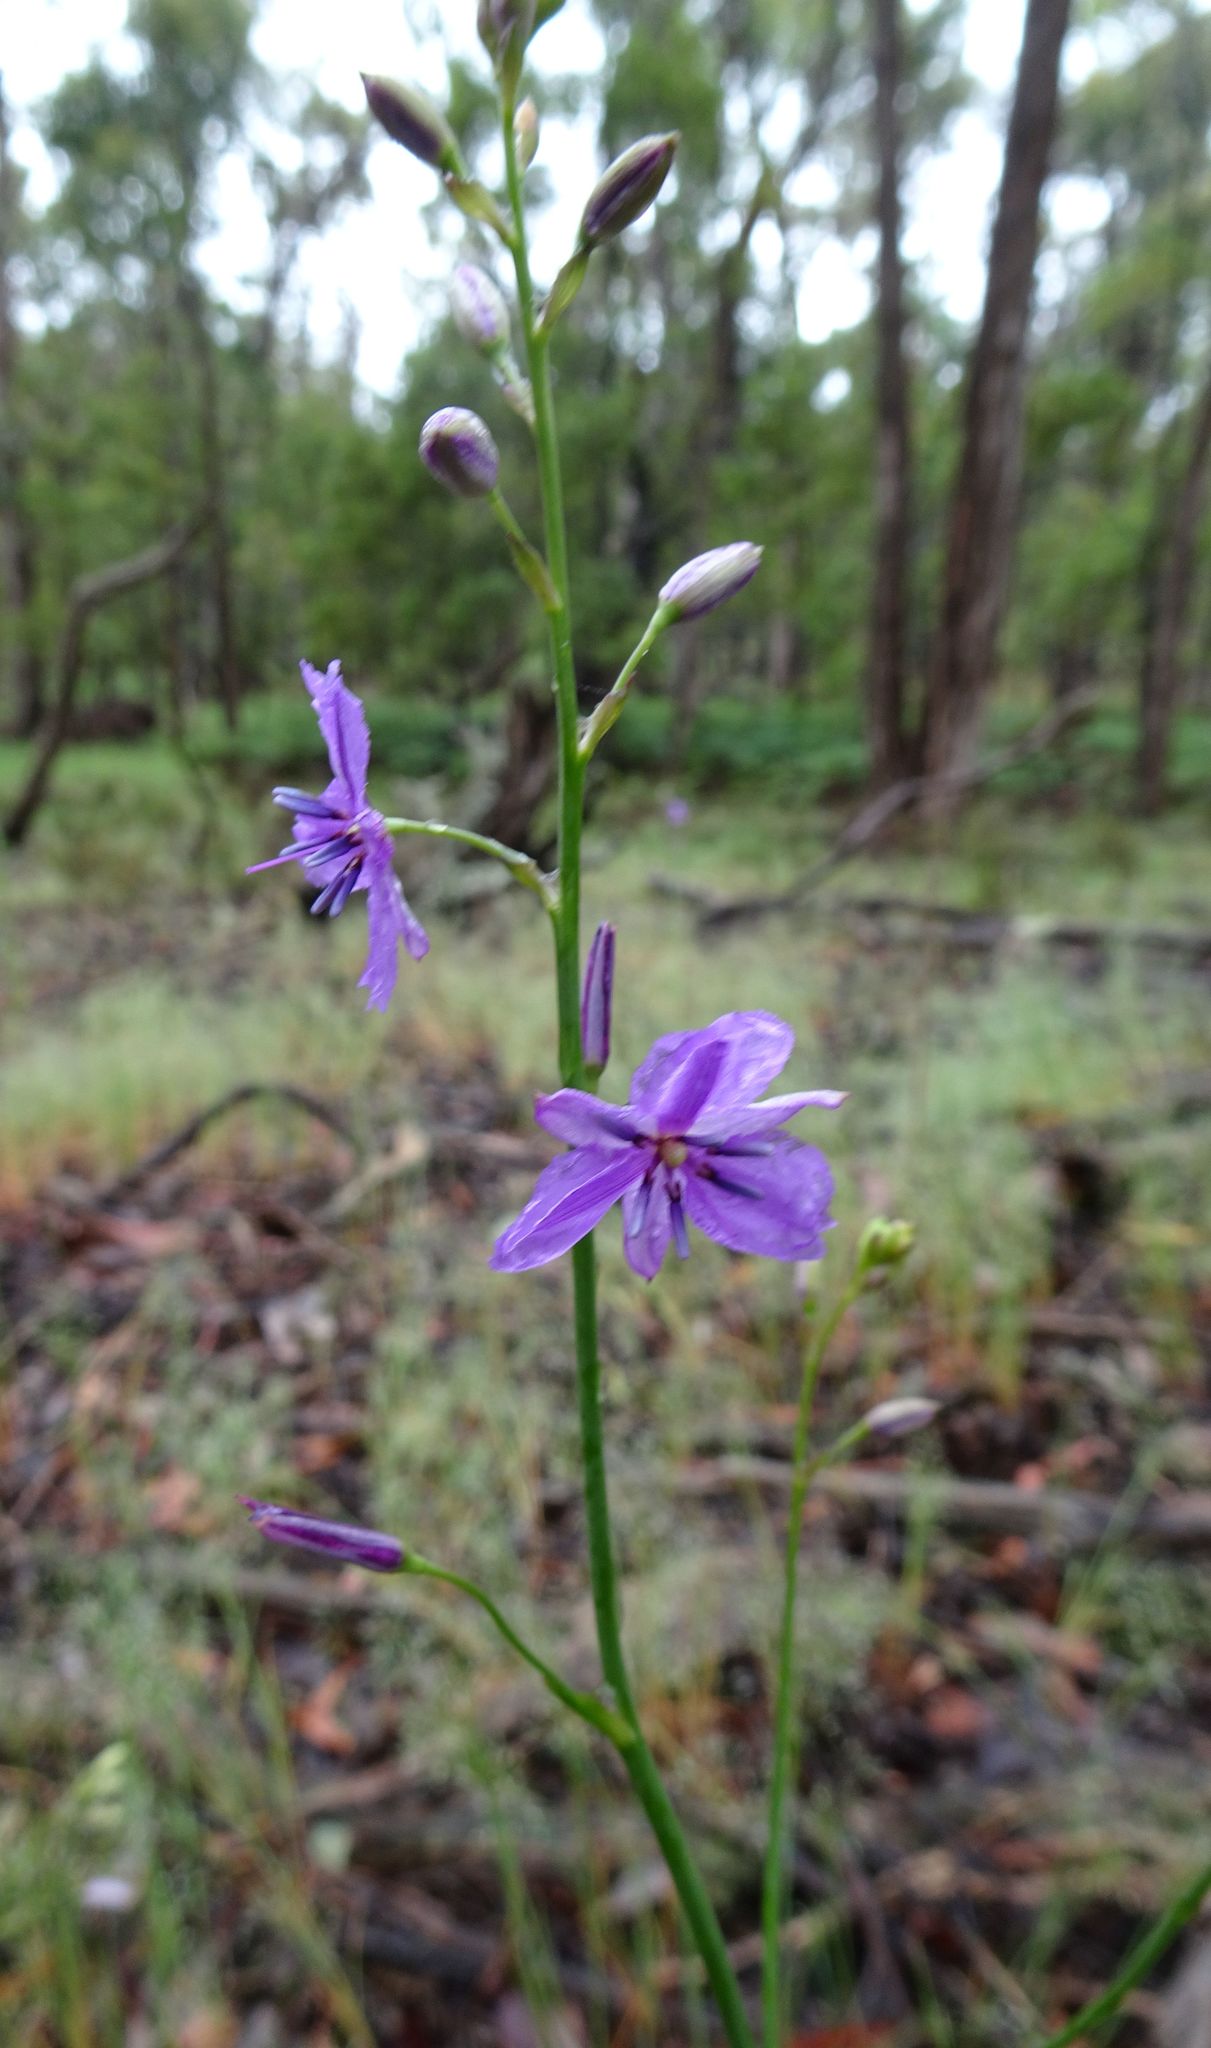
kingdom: Plantae
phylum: Tracheophyta
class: Liliopsida
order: Asparagales
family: Asparagaceae
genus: Arthropodium
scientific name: Arthropodium strictum
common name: Chocolate-lily
